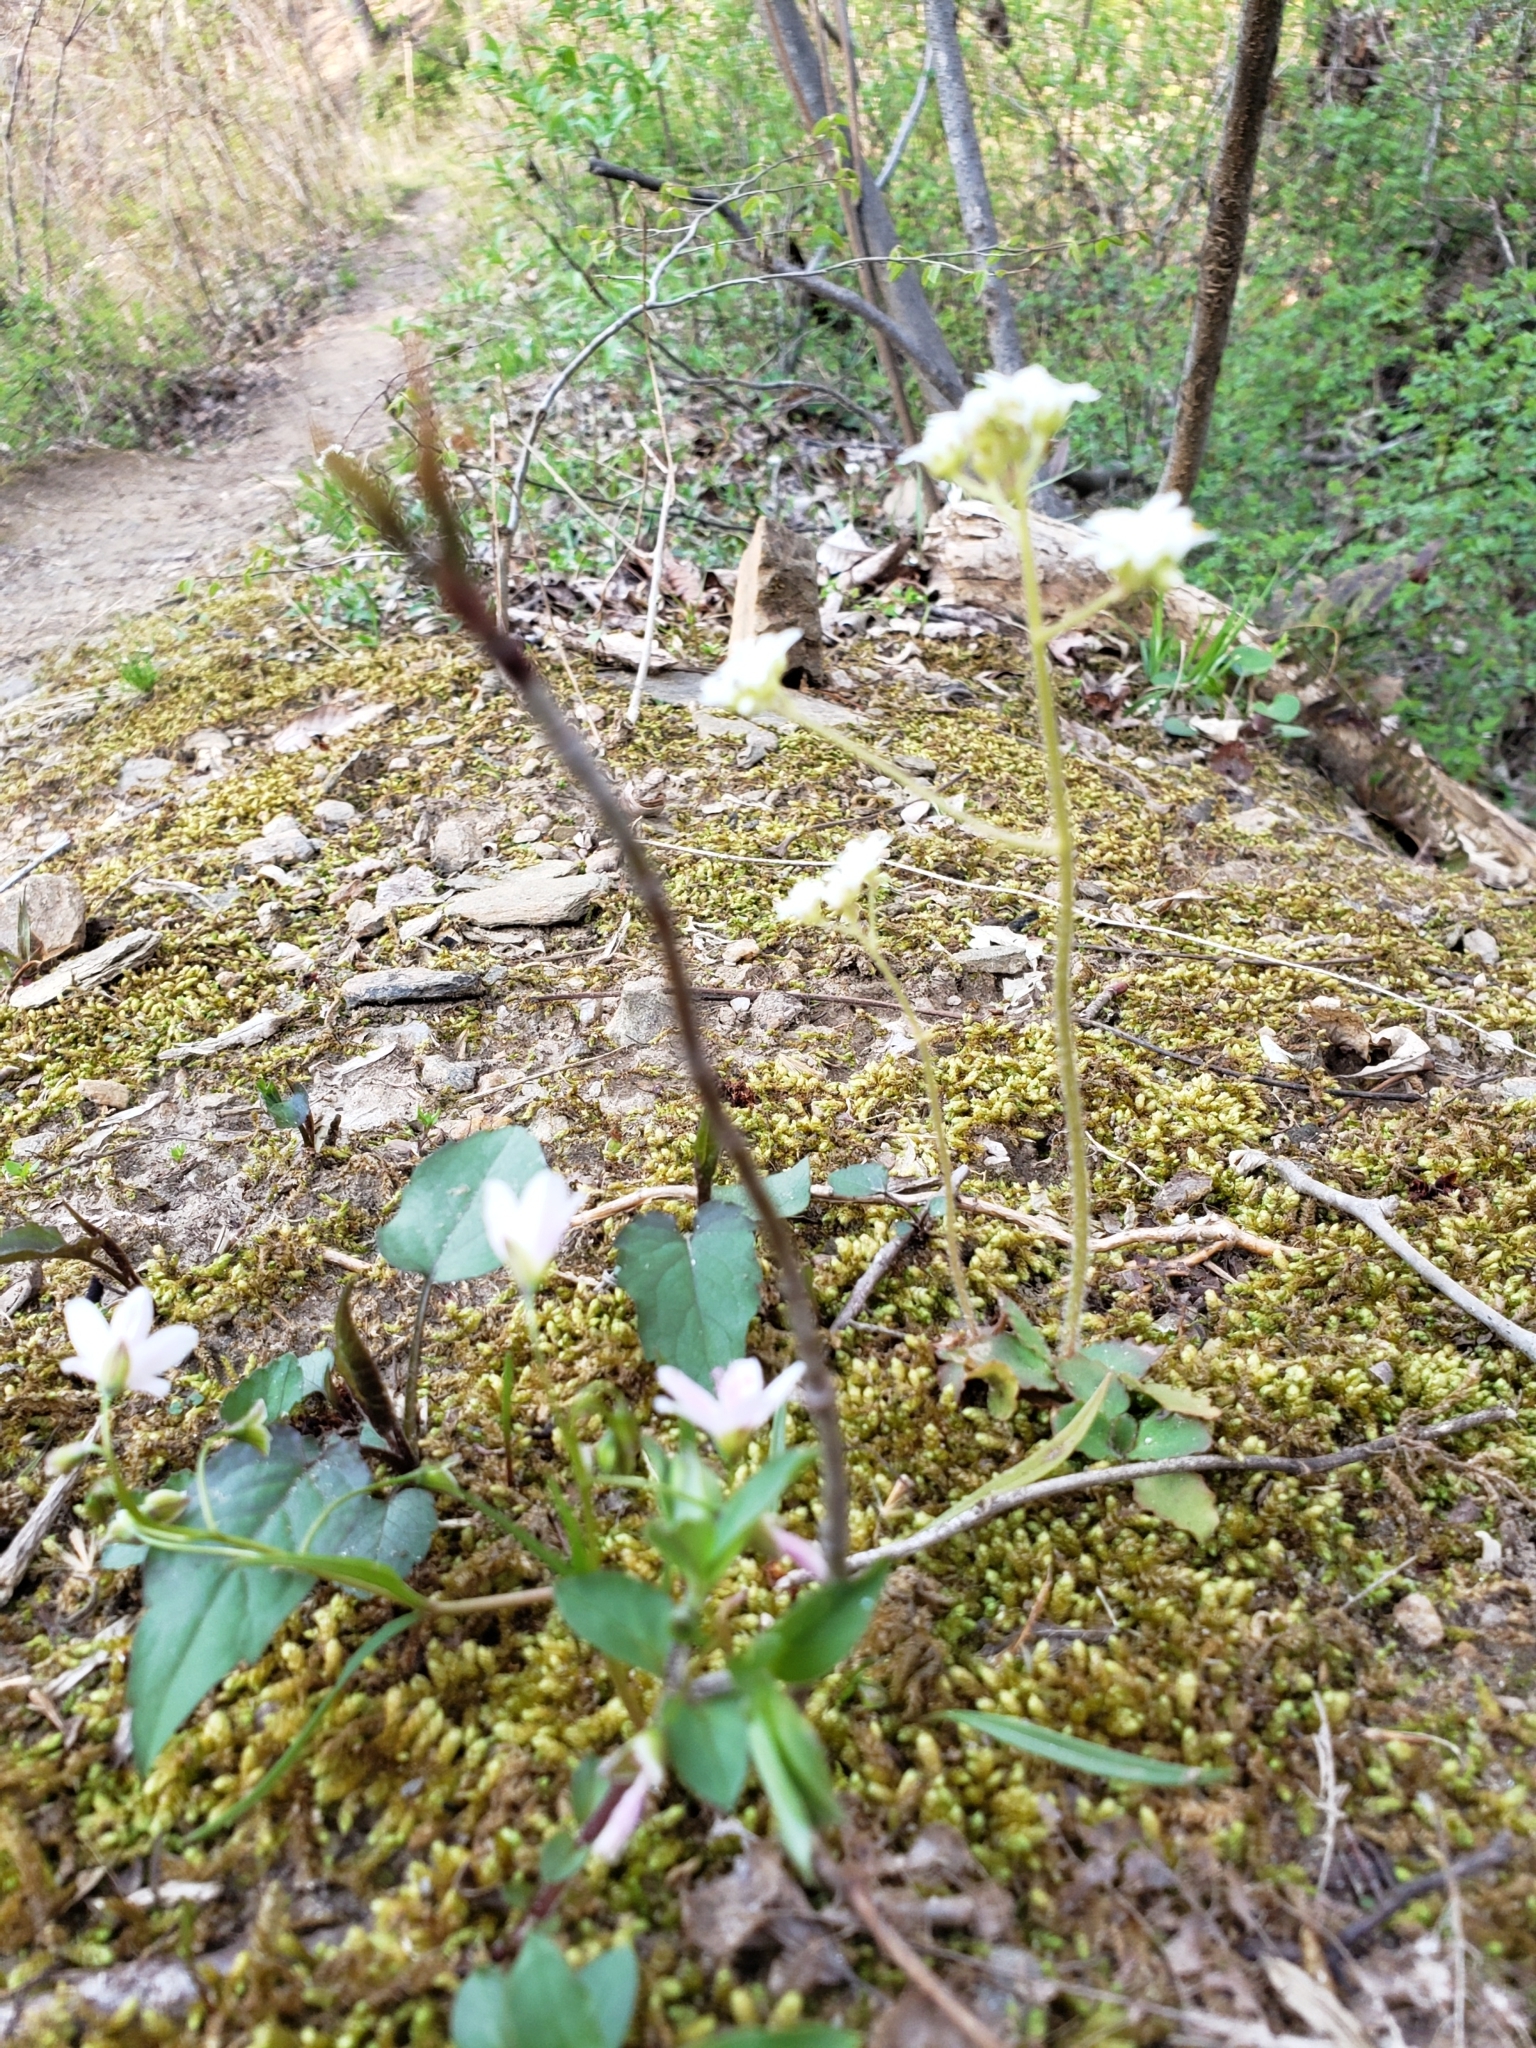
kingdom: Plantae
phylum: Tracheophyta
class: Magnoliopsida
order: Saxifragales
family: Saxifragaceae
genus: Micranthes
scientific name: Micranthes virginiensis
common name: Early saxifrage
